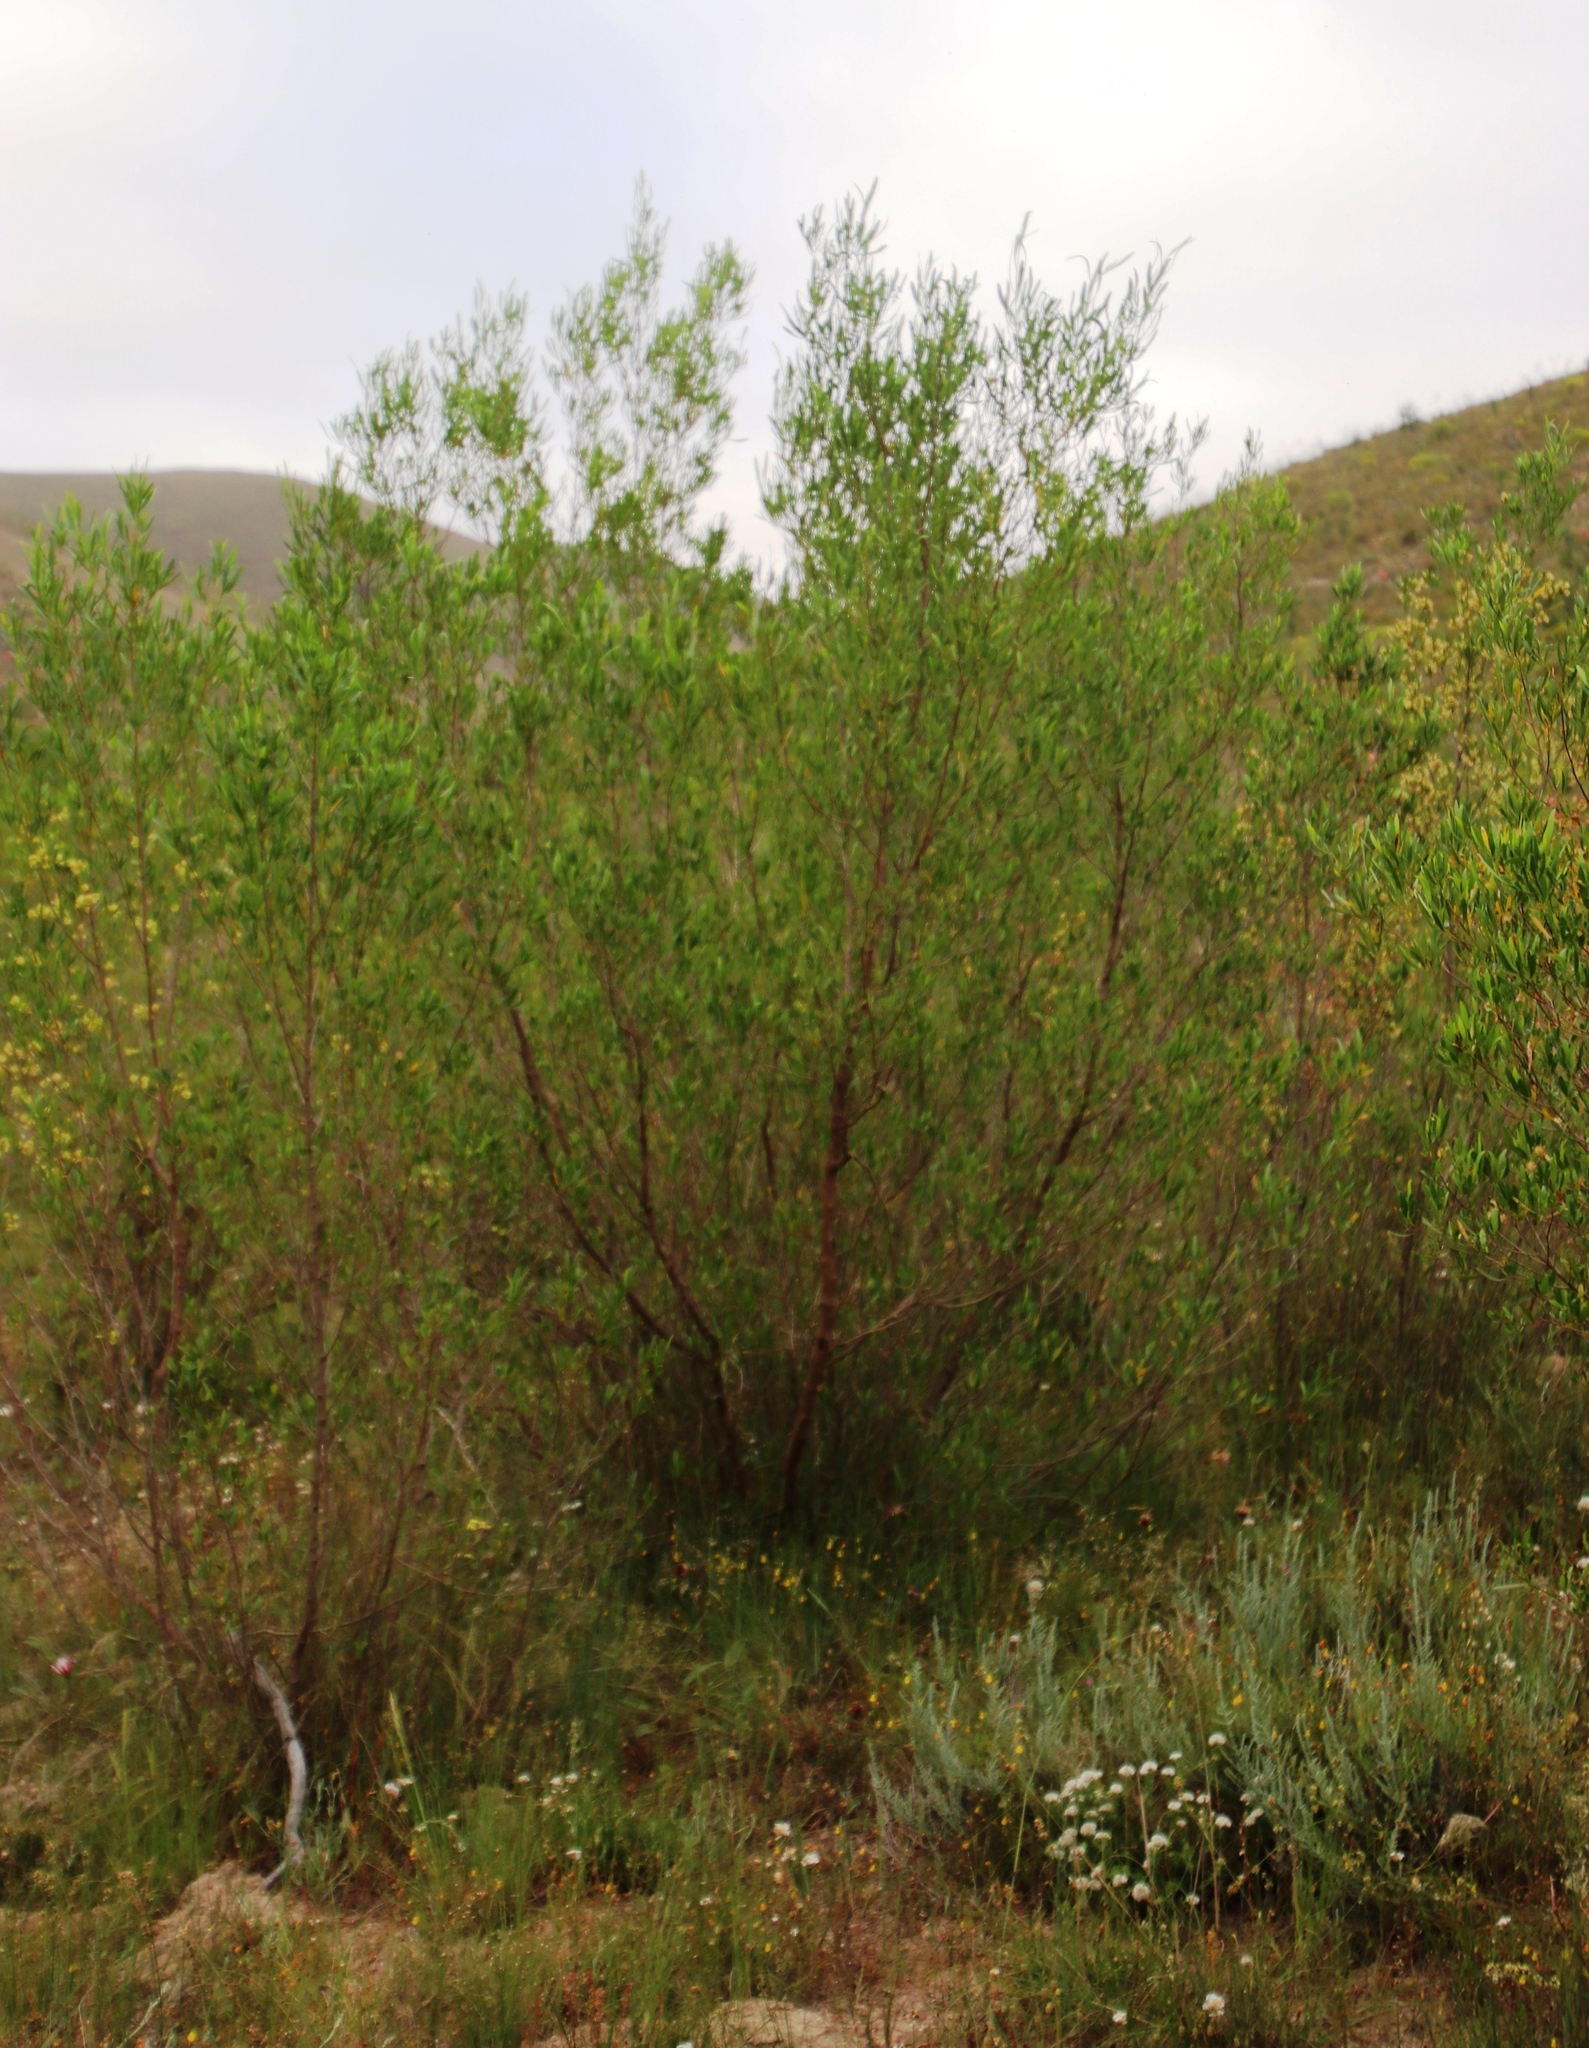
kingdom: Plantae
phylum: Tracheophyta
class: Magnoliopsida
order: Sapindales
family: Sapindaceae
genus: Dodonaea
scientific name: Dodonaea viscosa
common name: Hopbush
